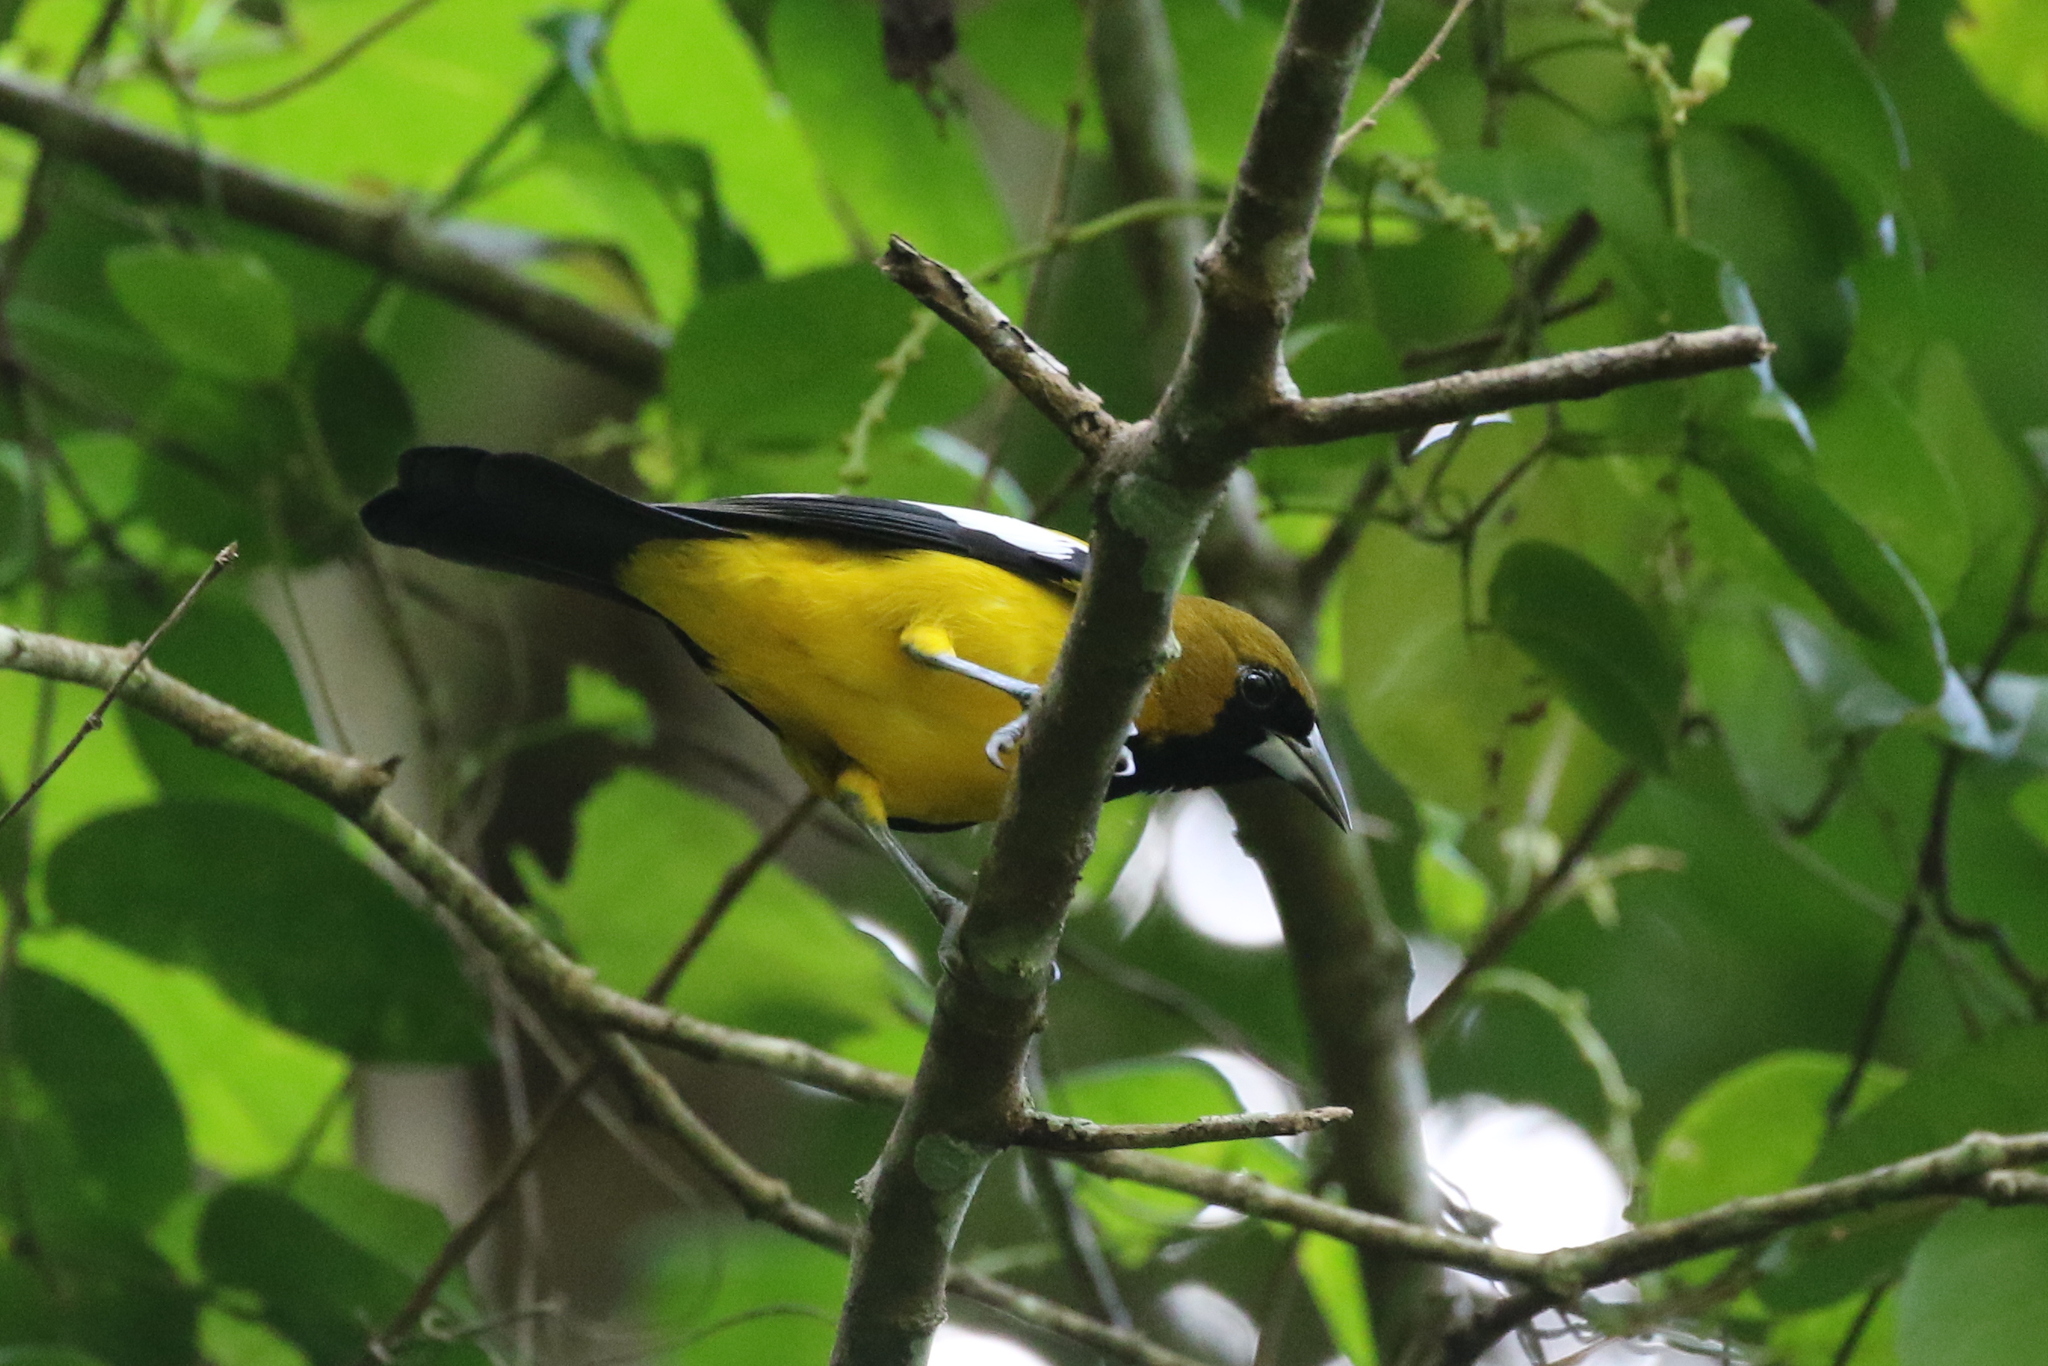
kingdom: Animalia
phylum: Chordata
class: Aves
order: Passeriformes
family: Icteridae
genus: Icterus
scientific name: Icterus leucopteryx
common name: Jamaican oriole
